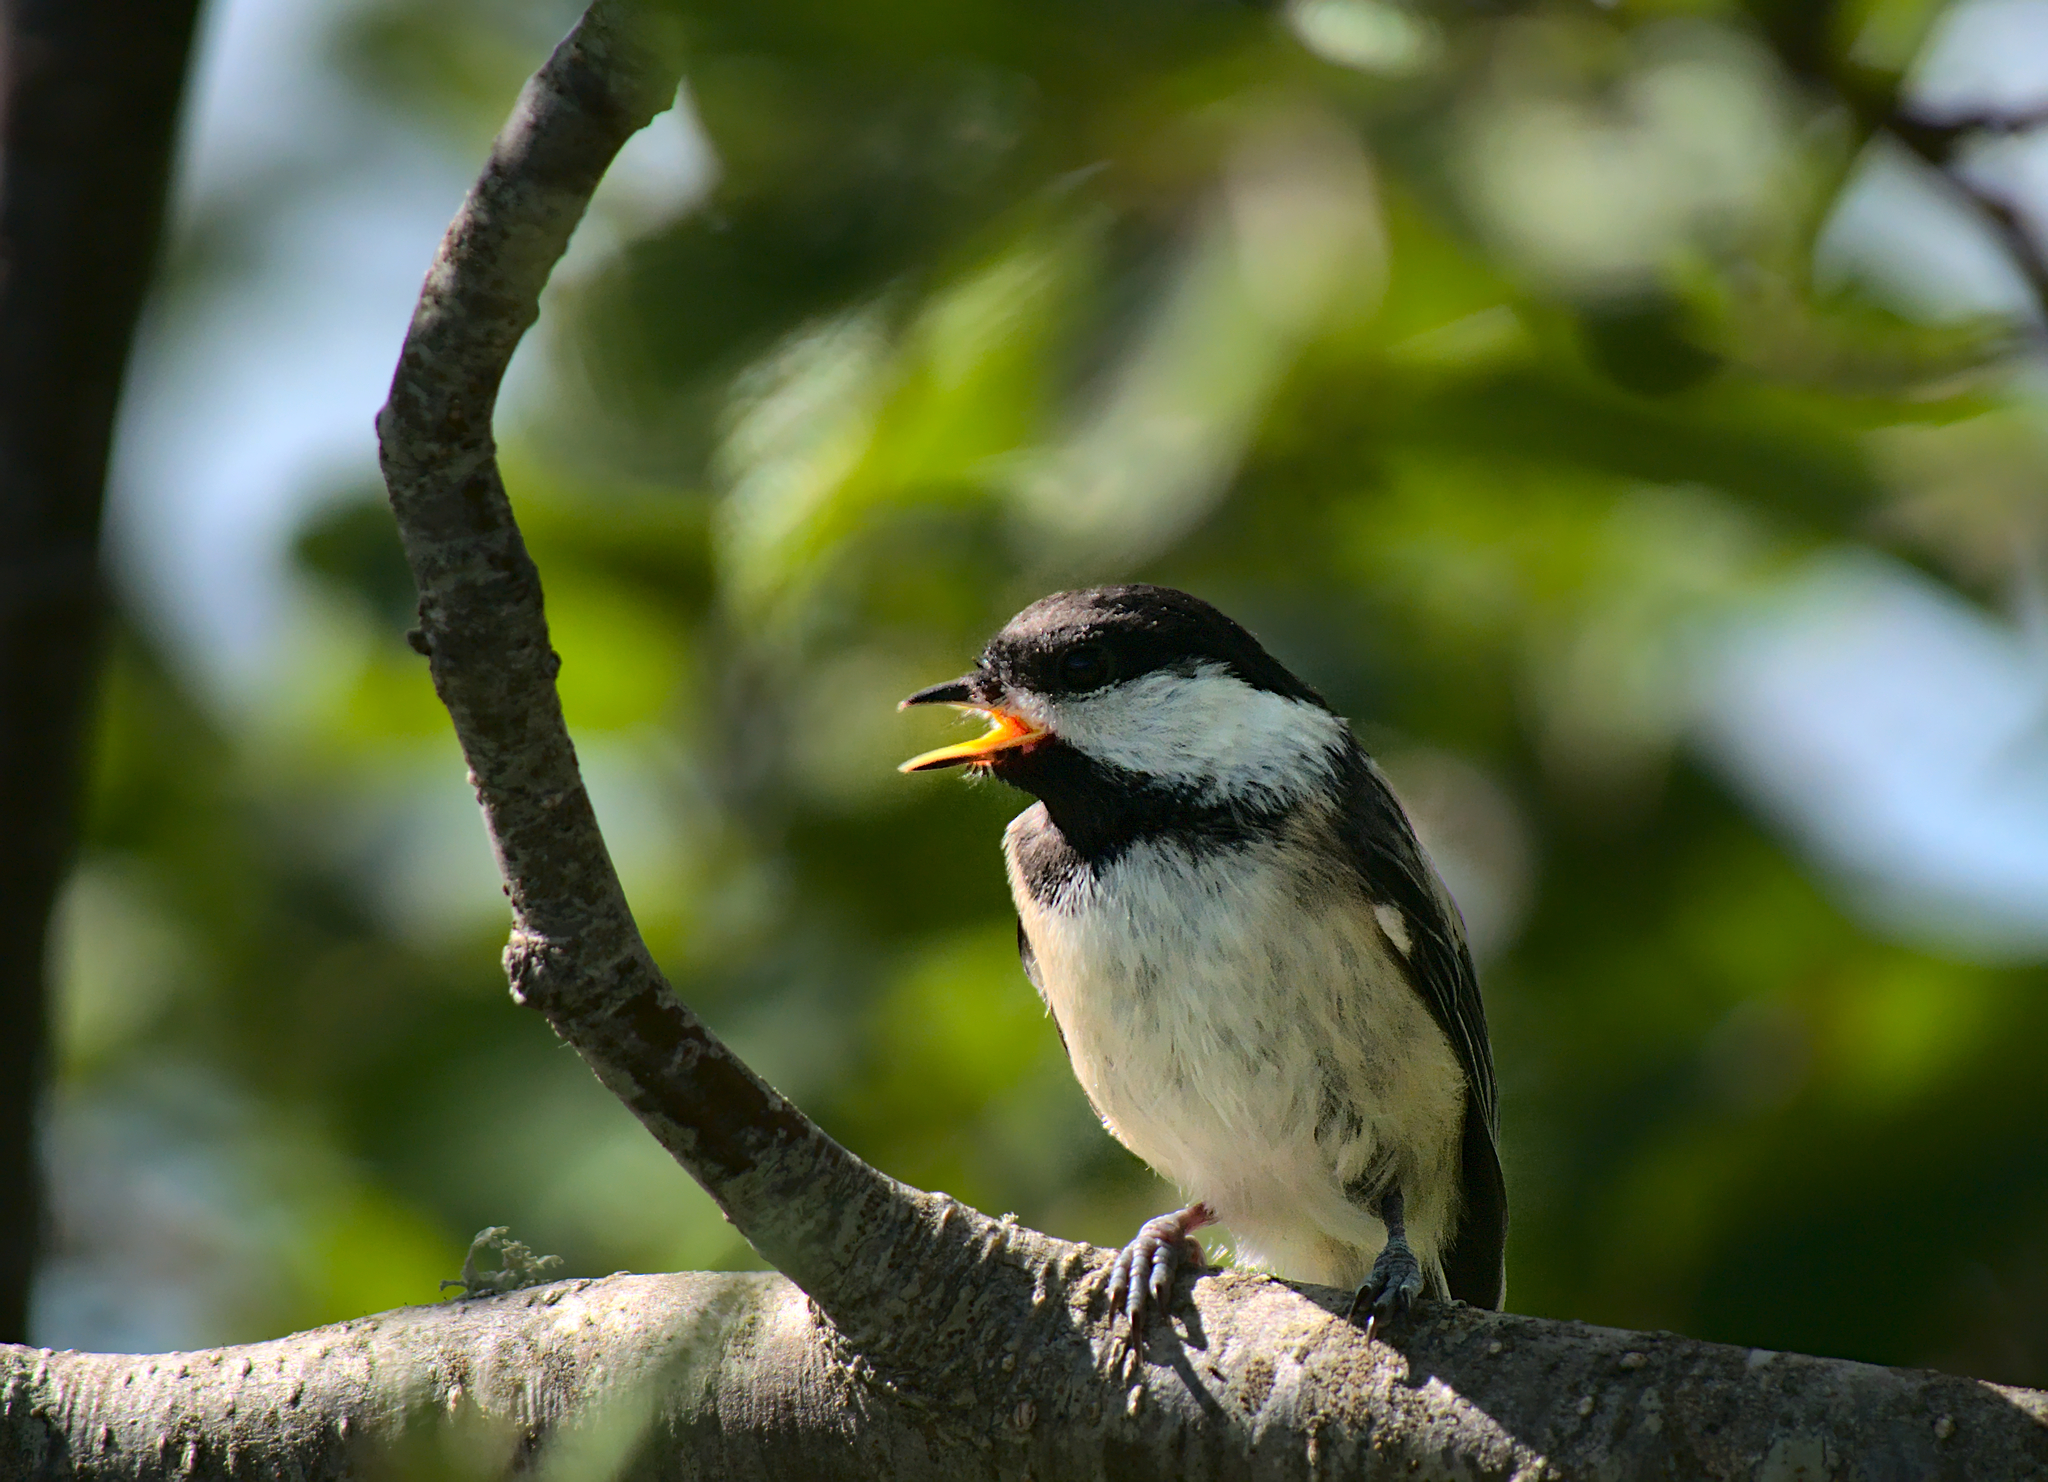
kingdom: Animalia
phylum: Chordata
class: Aves
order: Passeriformes
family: Paridae
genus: Poecile
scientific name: Poecile atricapillus
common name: Black-capped chickadee
